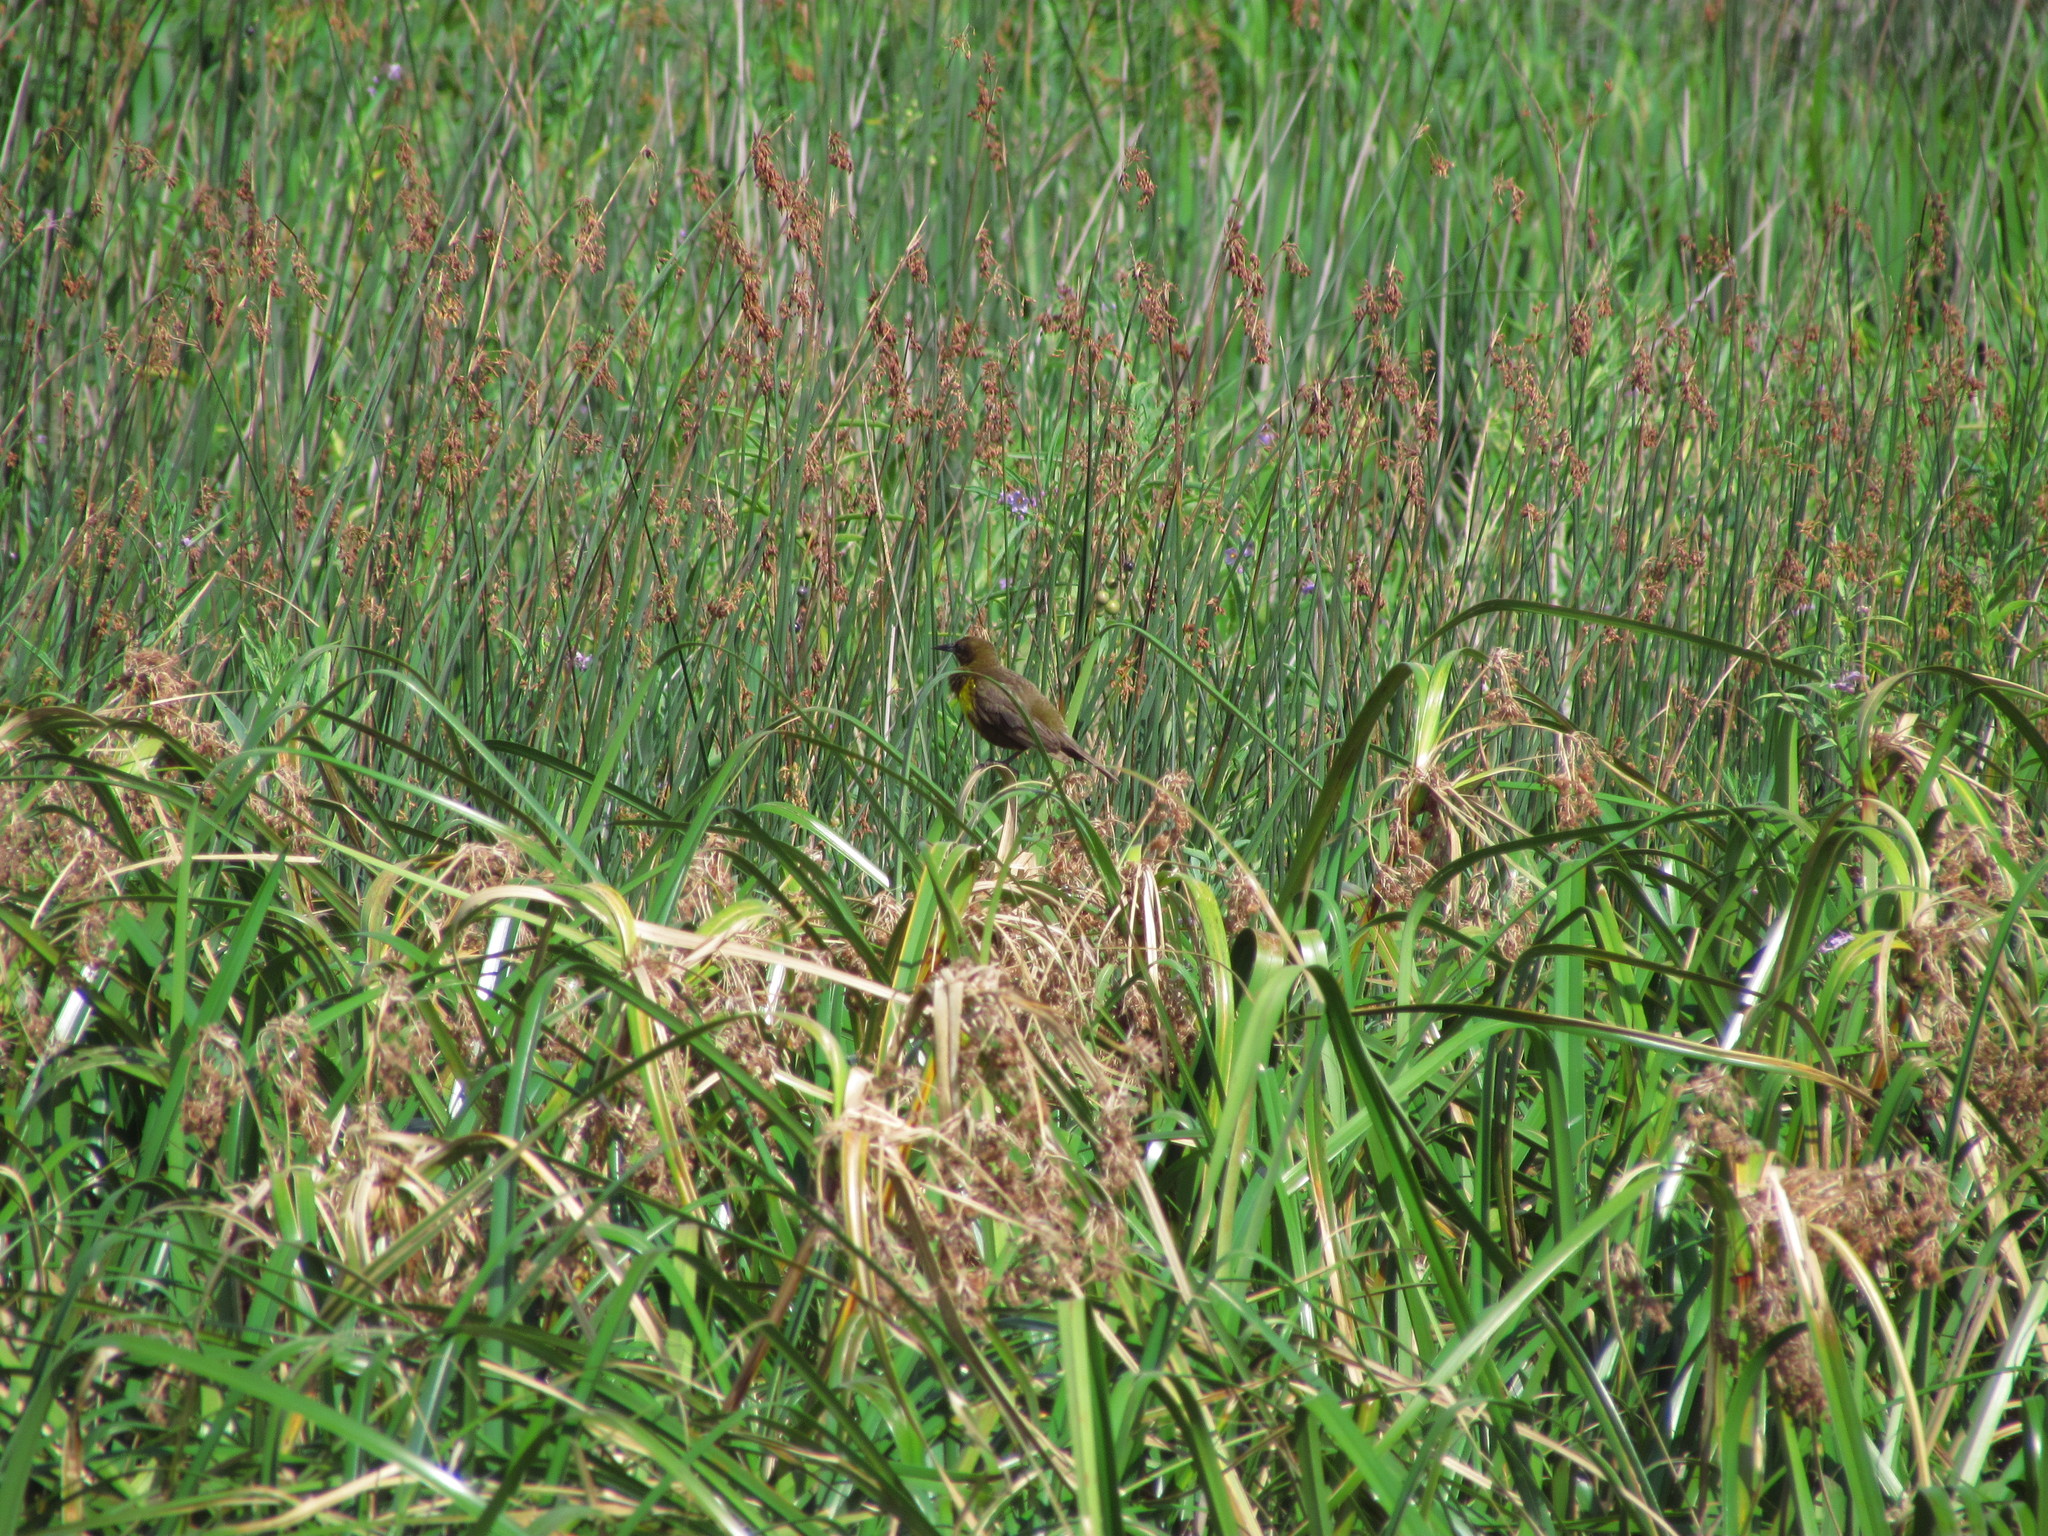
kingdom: Animalia
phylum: Chordata
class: Aves
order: Passeriformes
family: Icteridae
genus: Pseudoleistes
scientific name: Pseudoleistes virescens
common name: Brown-and-yellow marshbird
